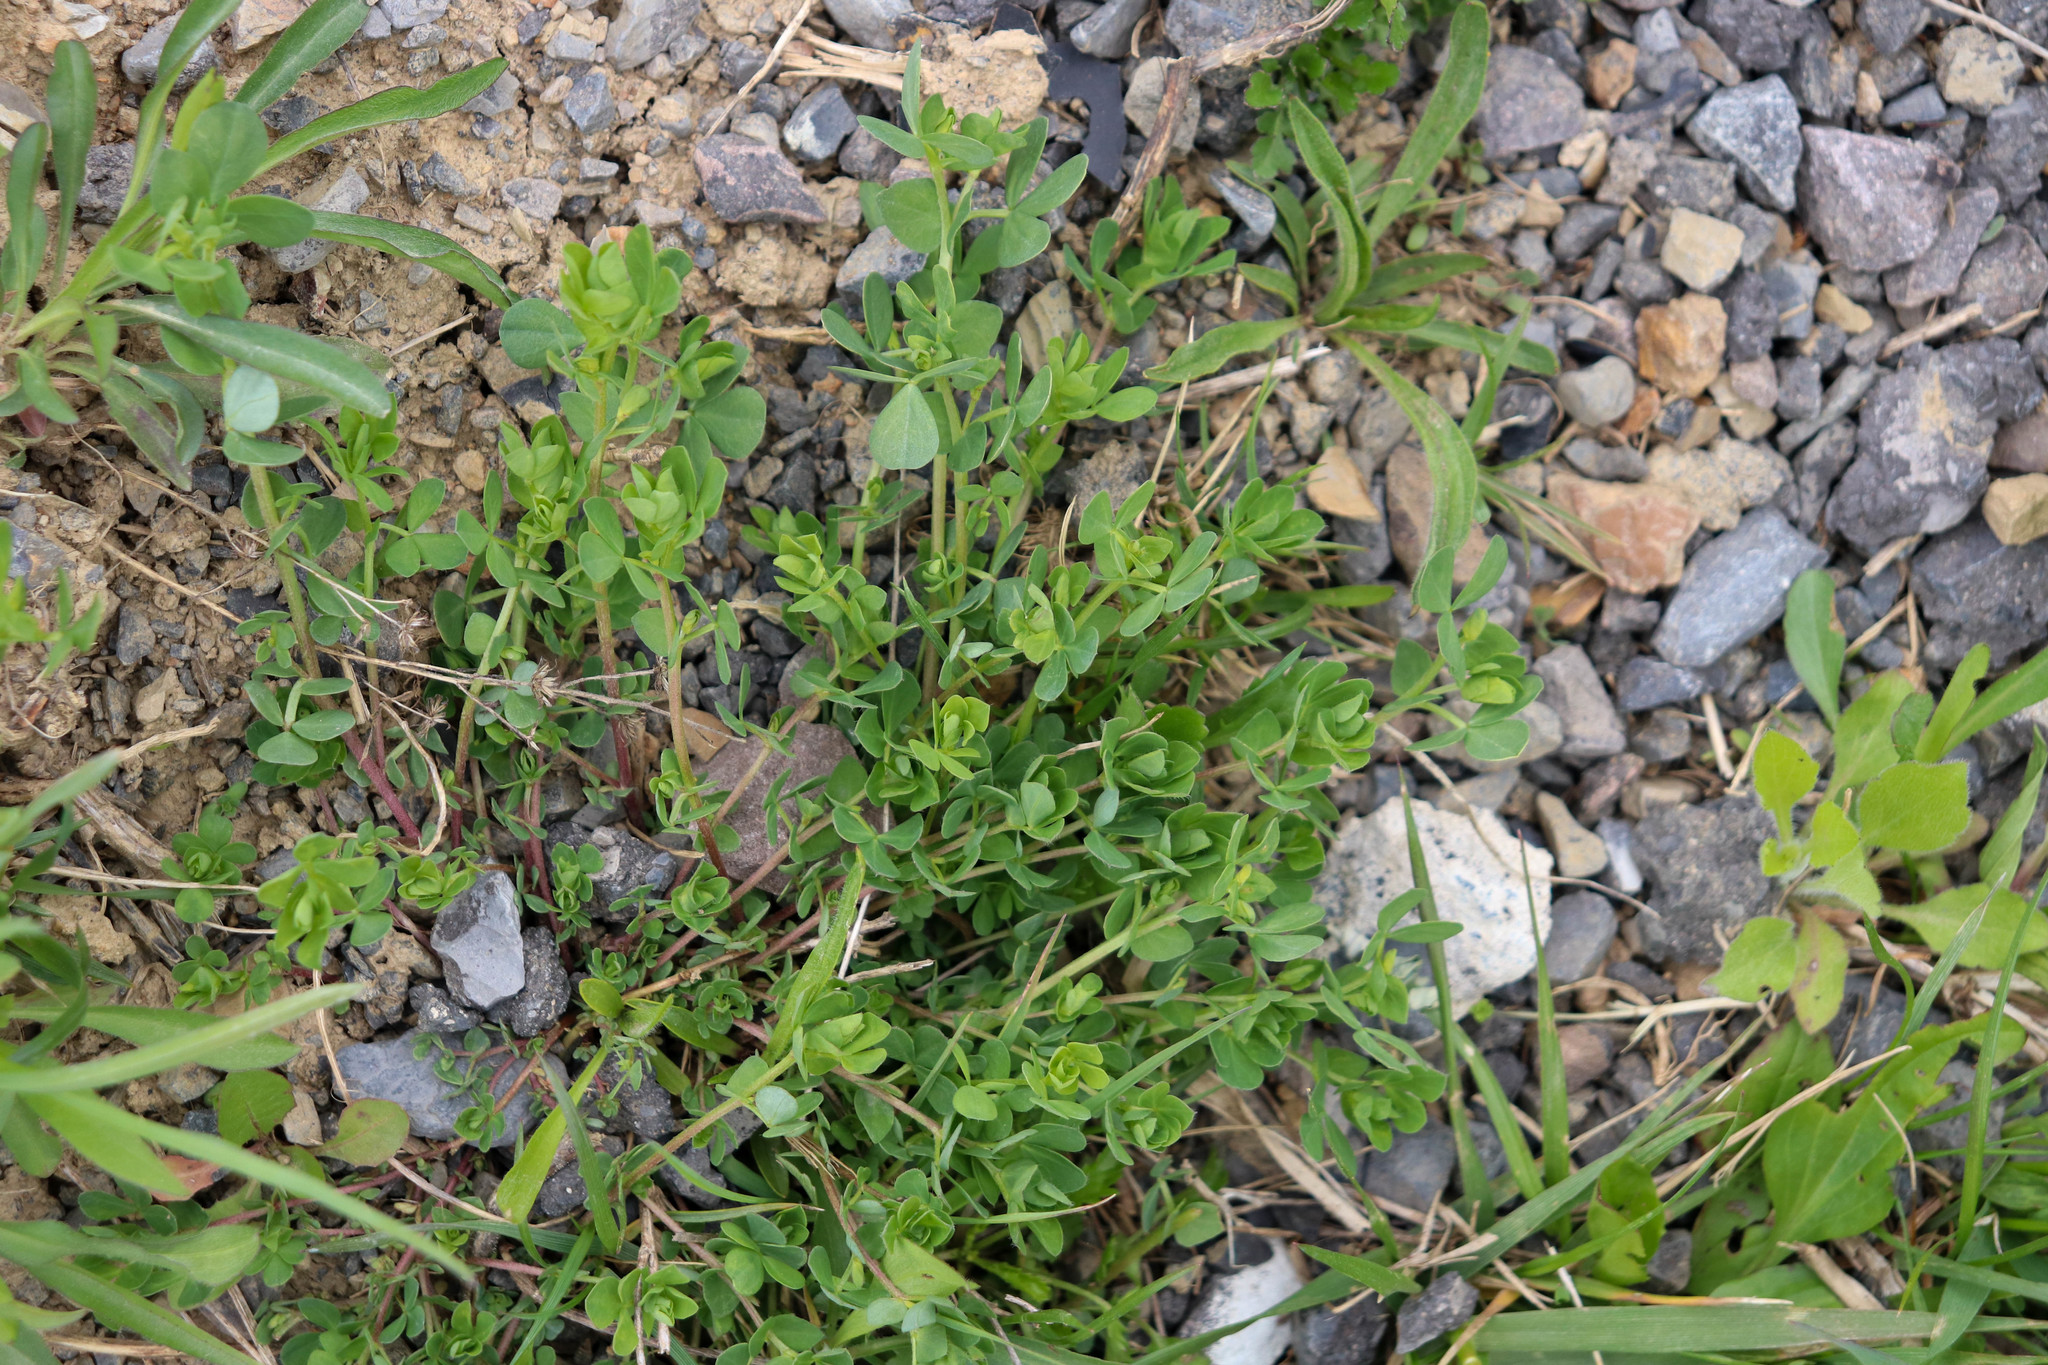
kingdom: Plantae
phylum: Tracheophyta
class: Magnoliopsida
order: Fabales
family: Fabaceae
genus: Lotus
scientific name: Lotus corniculatus
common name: Common bird's-foot-trefoil
